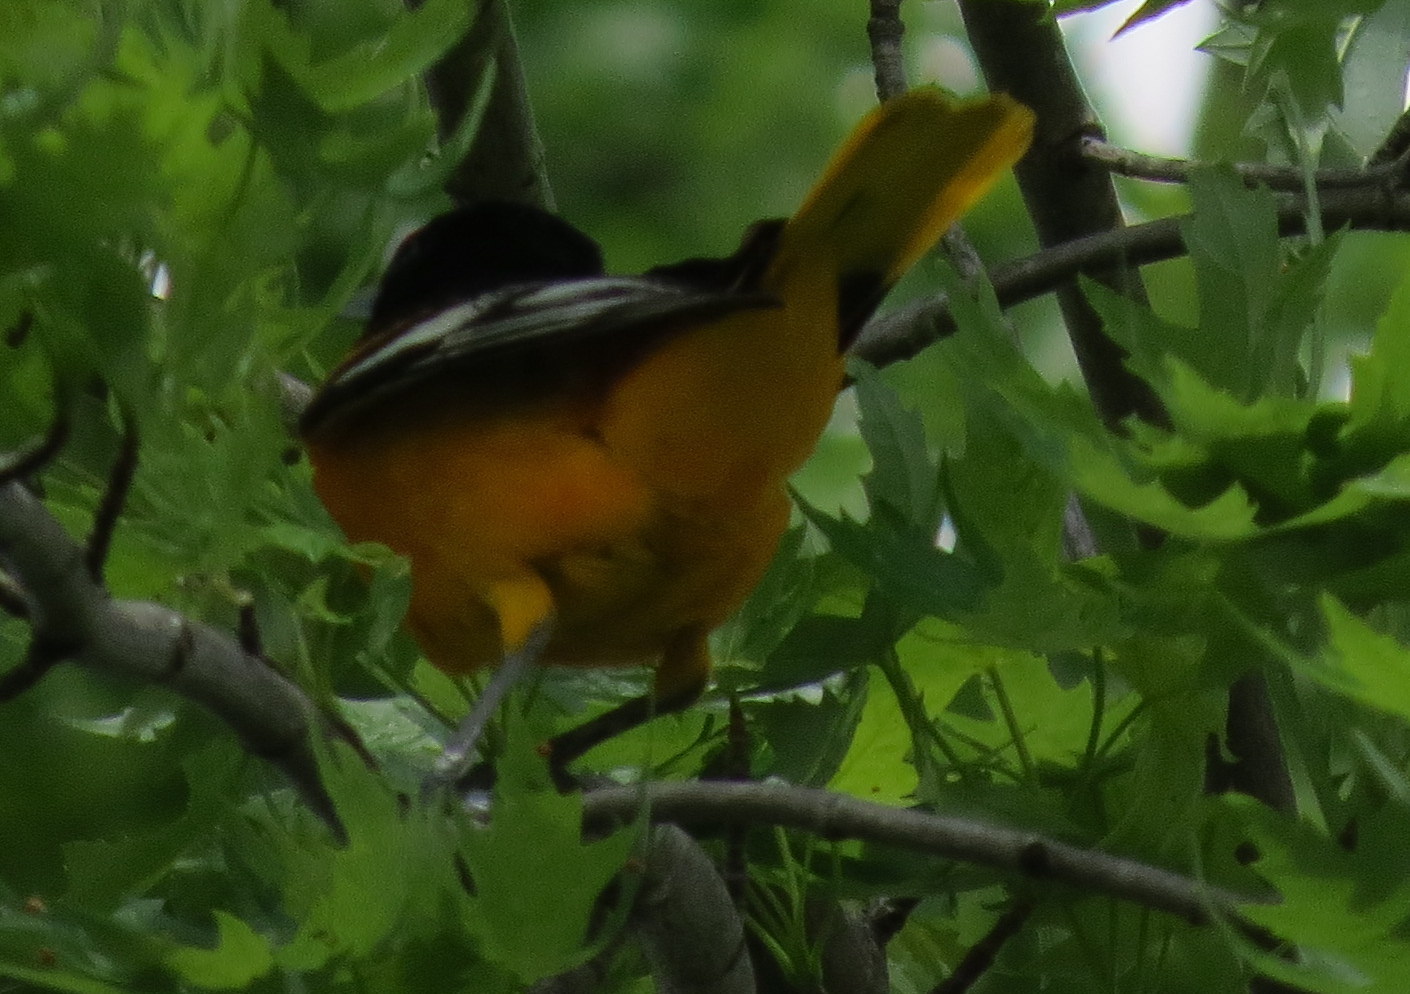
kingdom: Animalia
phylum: Chordata
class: Aves
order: Passeriformes
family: Icteridae
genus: Icterus
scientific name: Icterus galbula
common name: Baltimore oriole
